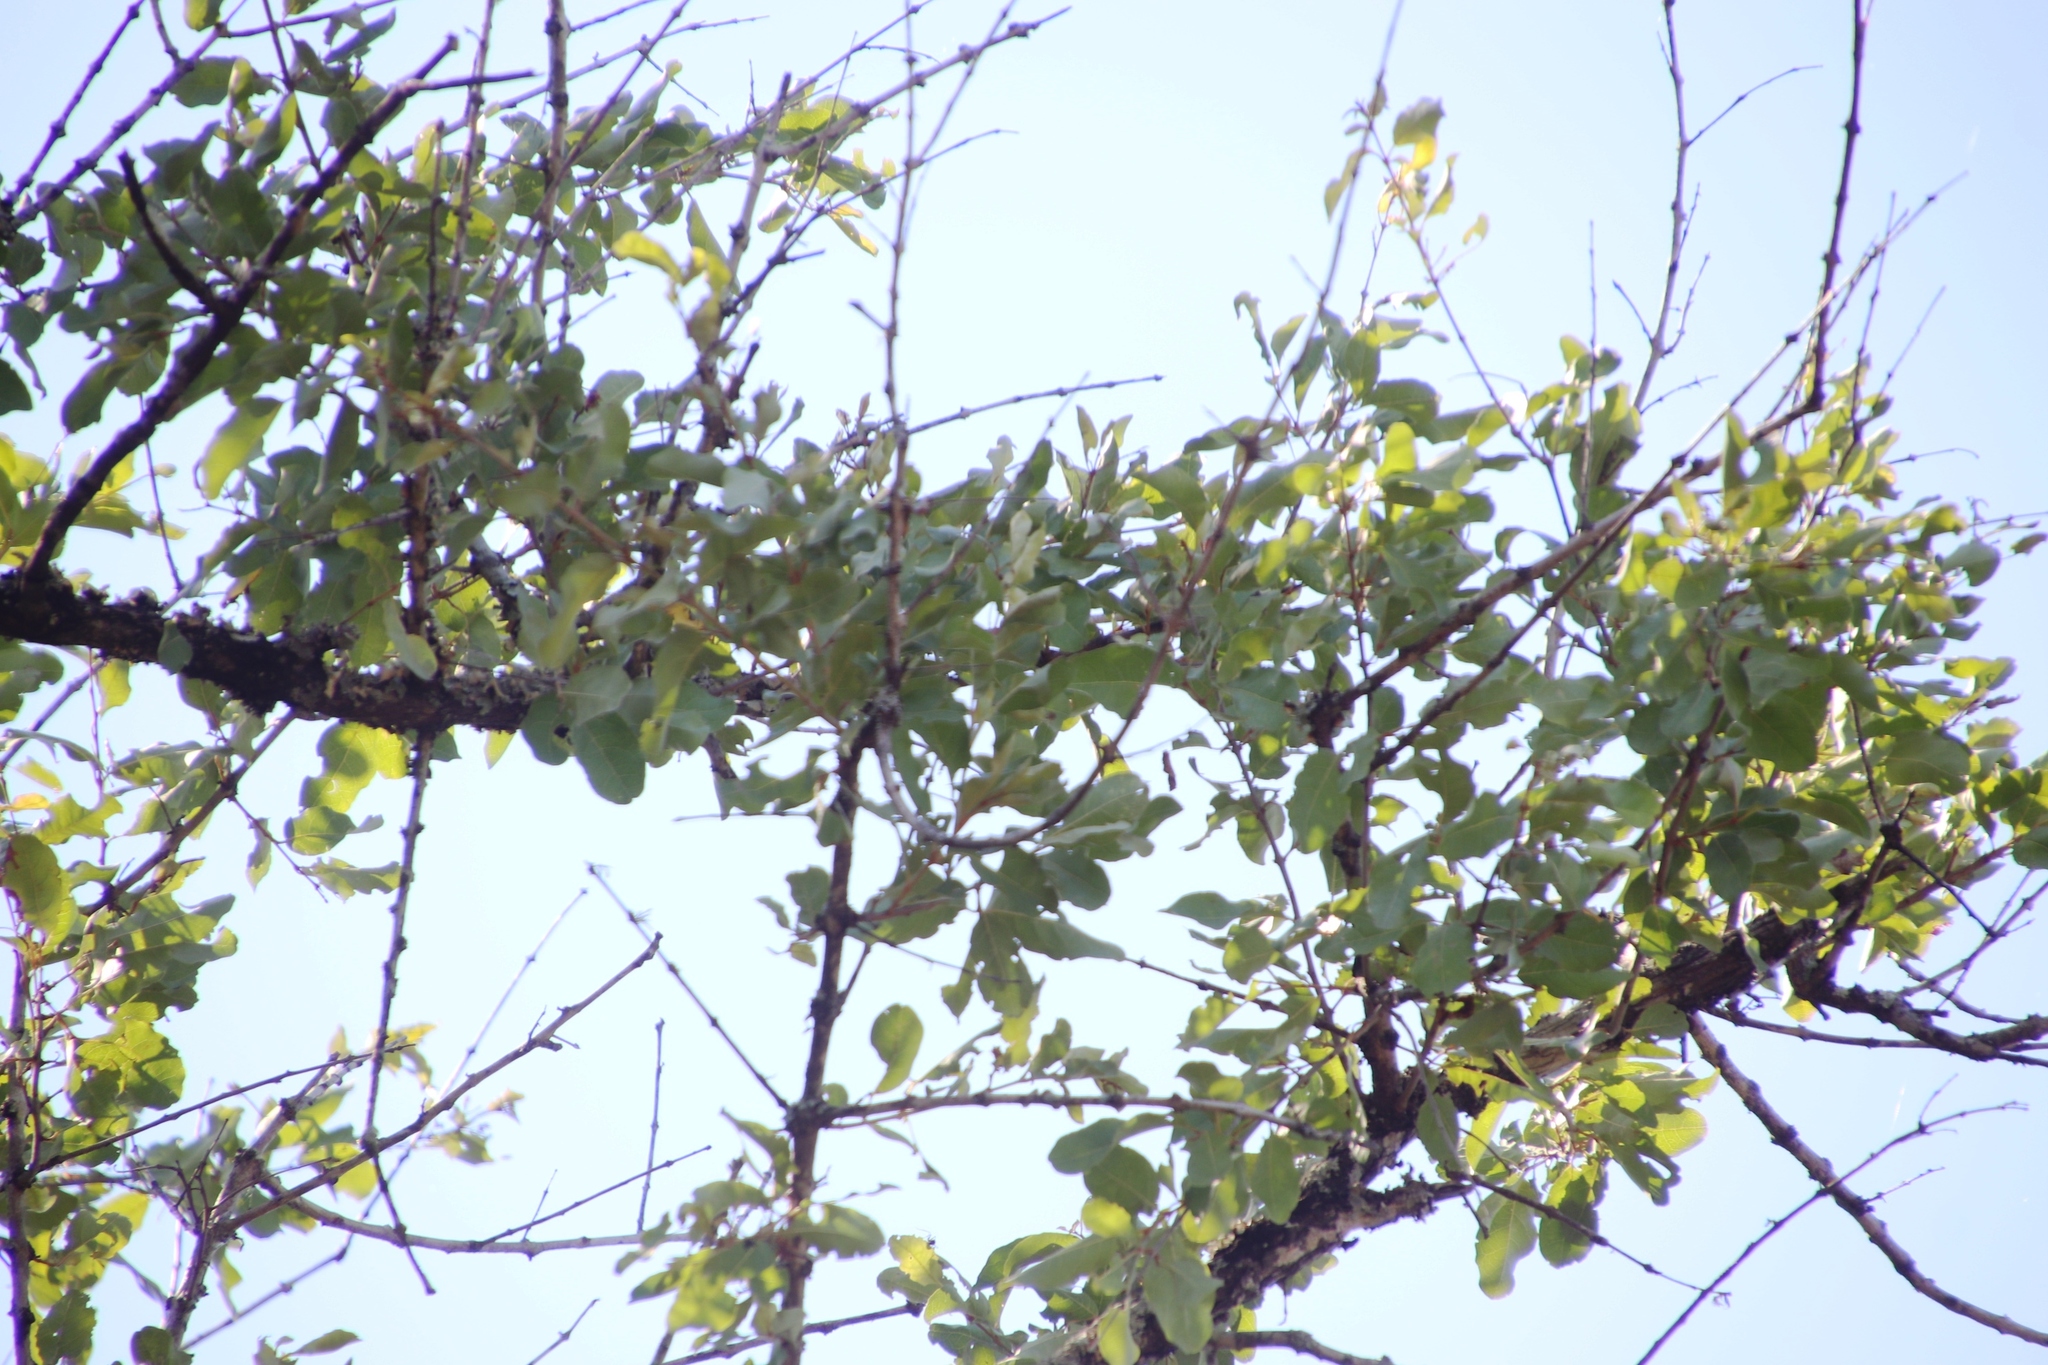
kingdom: Plantae
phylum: Tracheophyta
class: Magnoliopsida
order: Myrtales
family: Combretaceae
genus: Combretum
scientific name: Combretum imberbe
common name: Leadwood
